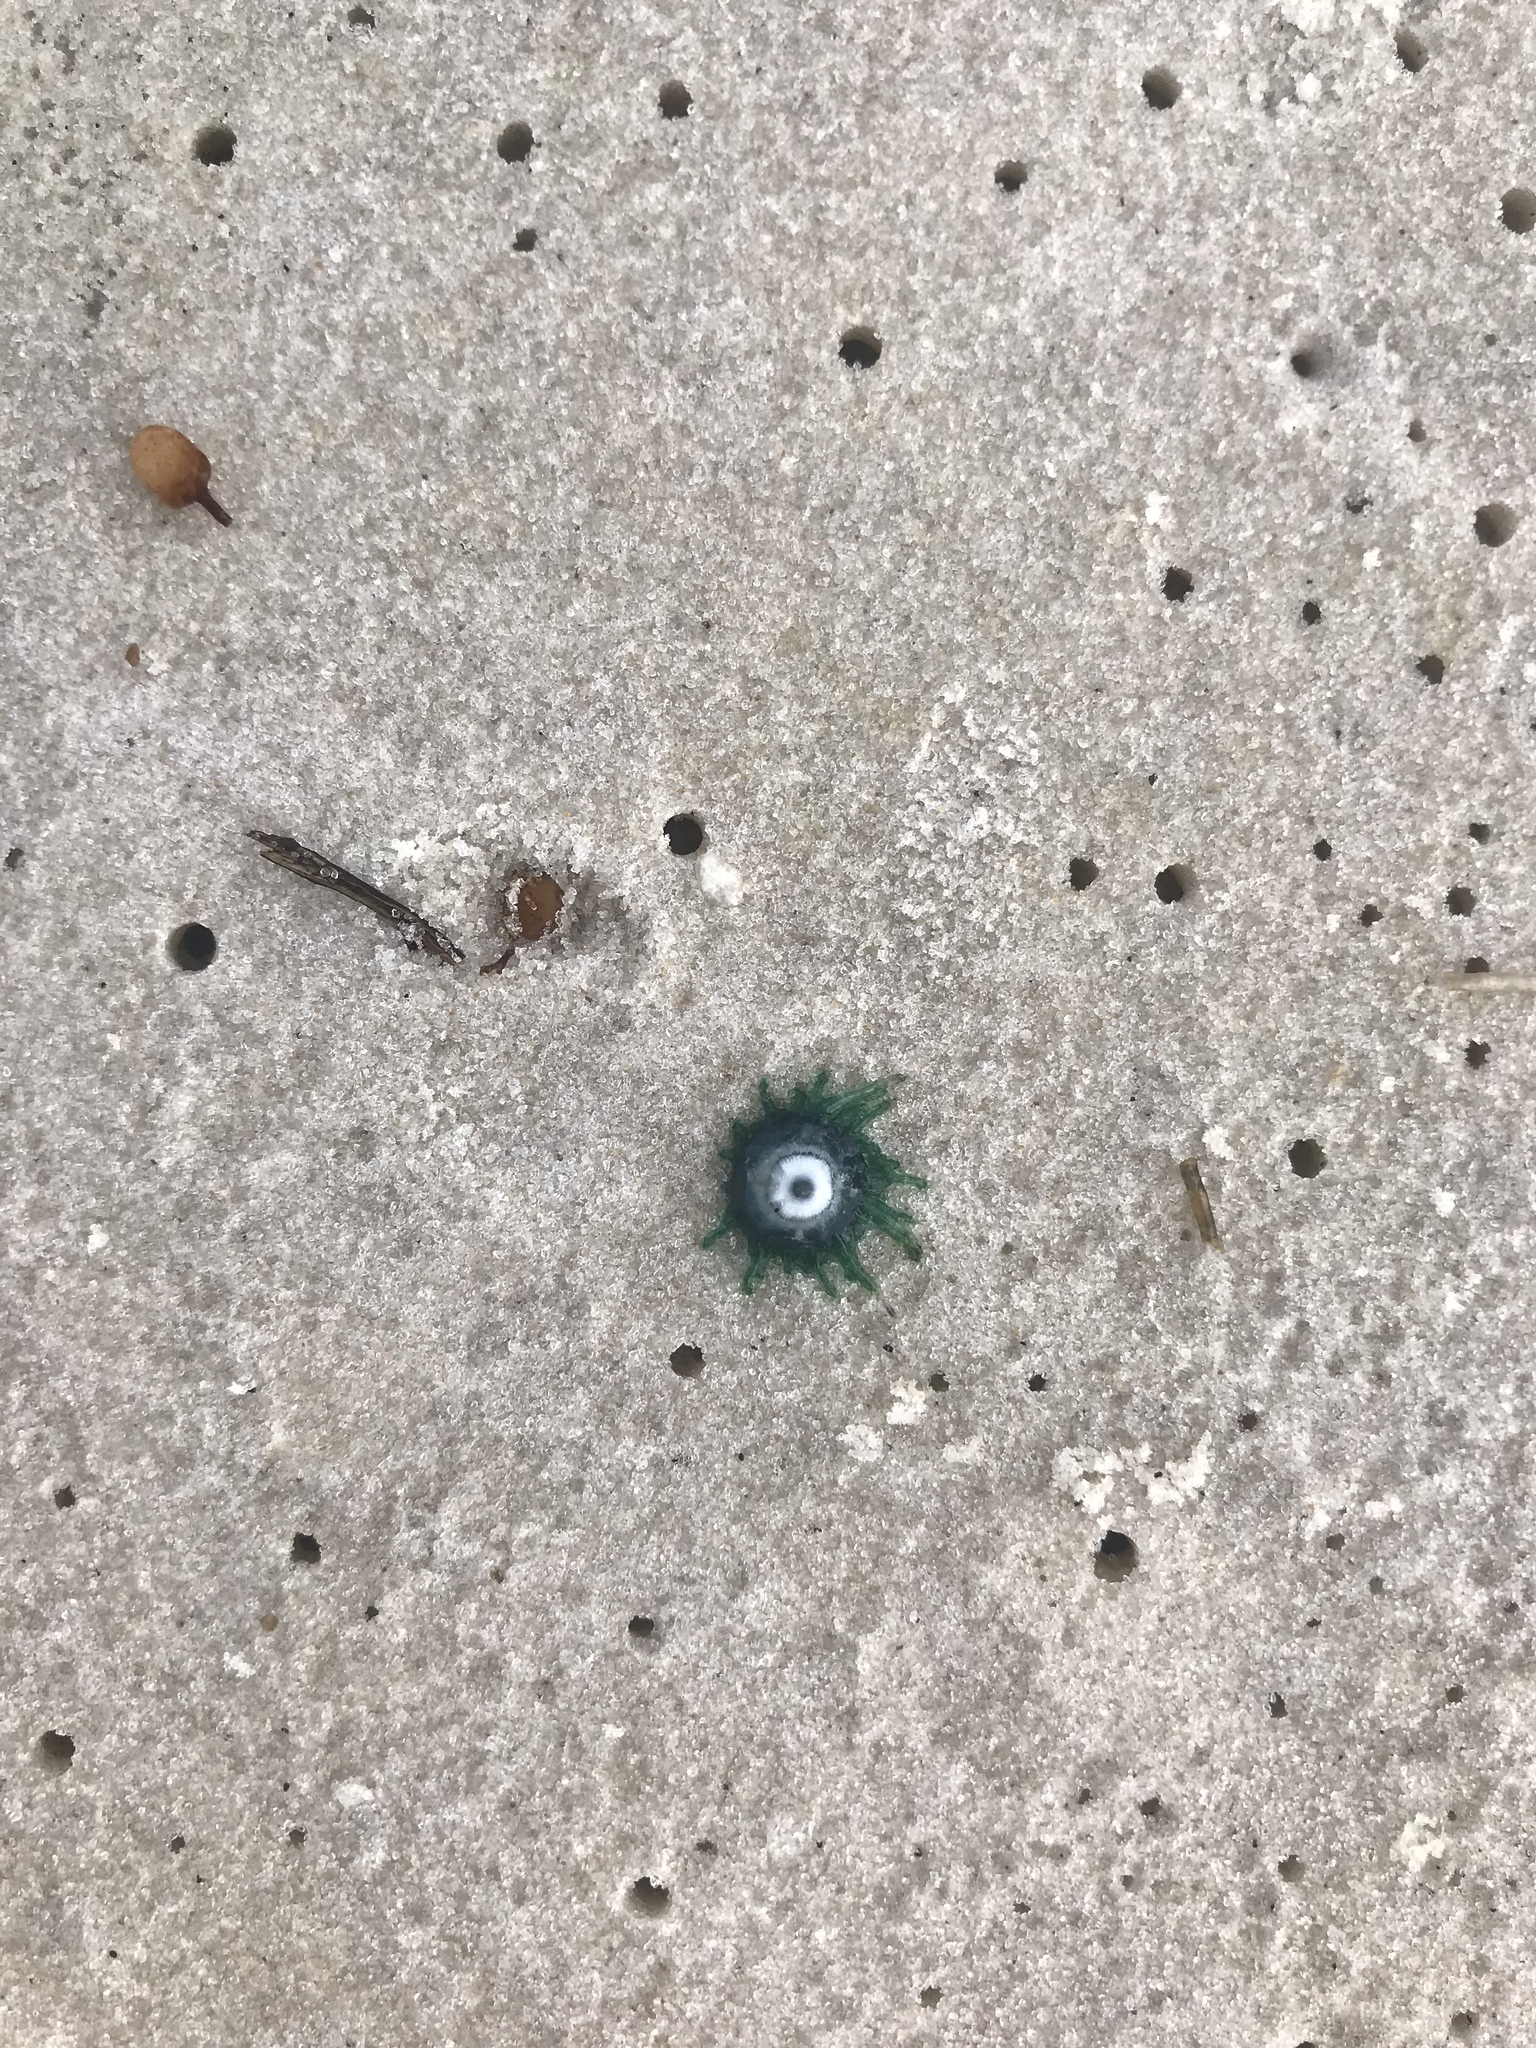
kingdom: Animalia
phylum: Cnidaria
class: Hydrozoa
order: Anthoathecata
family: Porpitidae
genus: Porpita
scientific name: Porpita porpita
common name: Blue button
